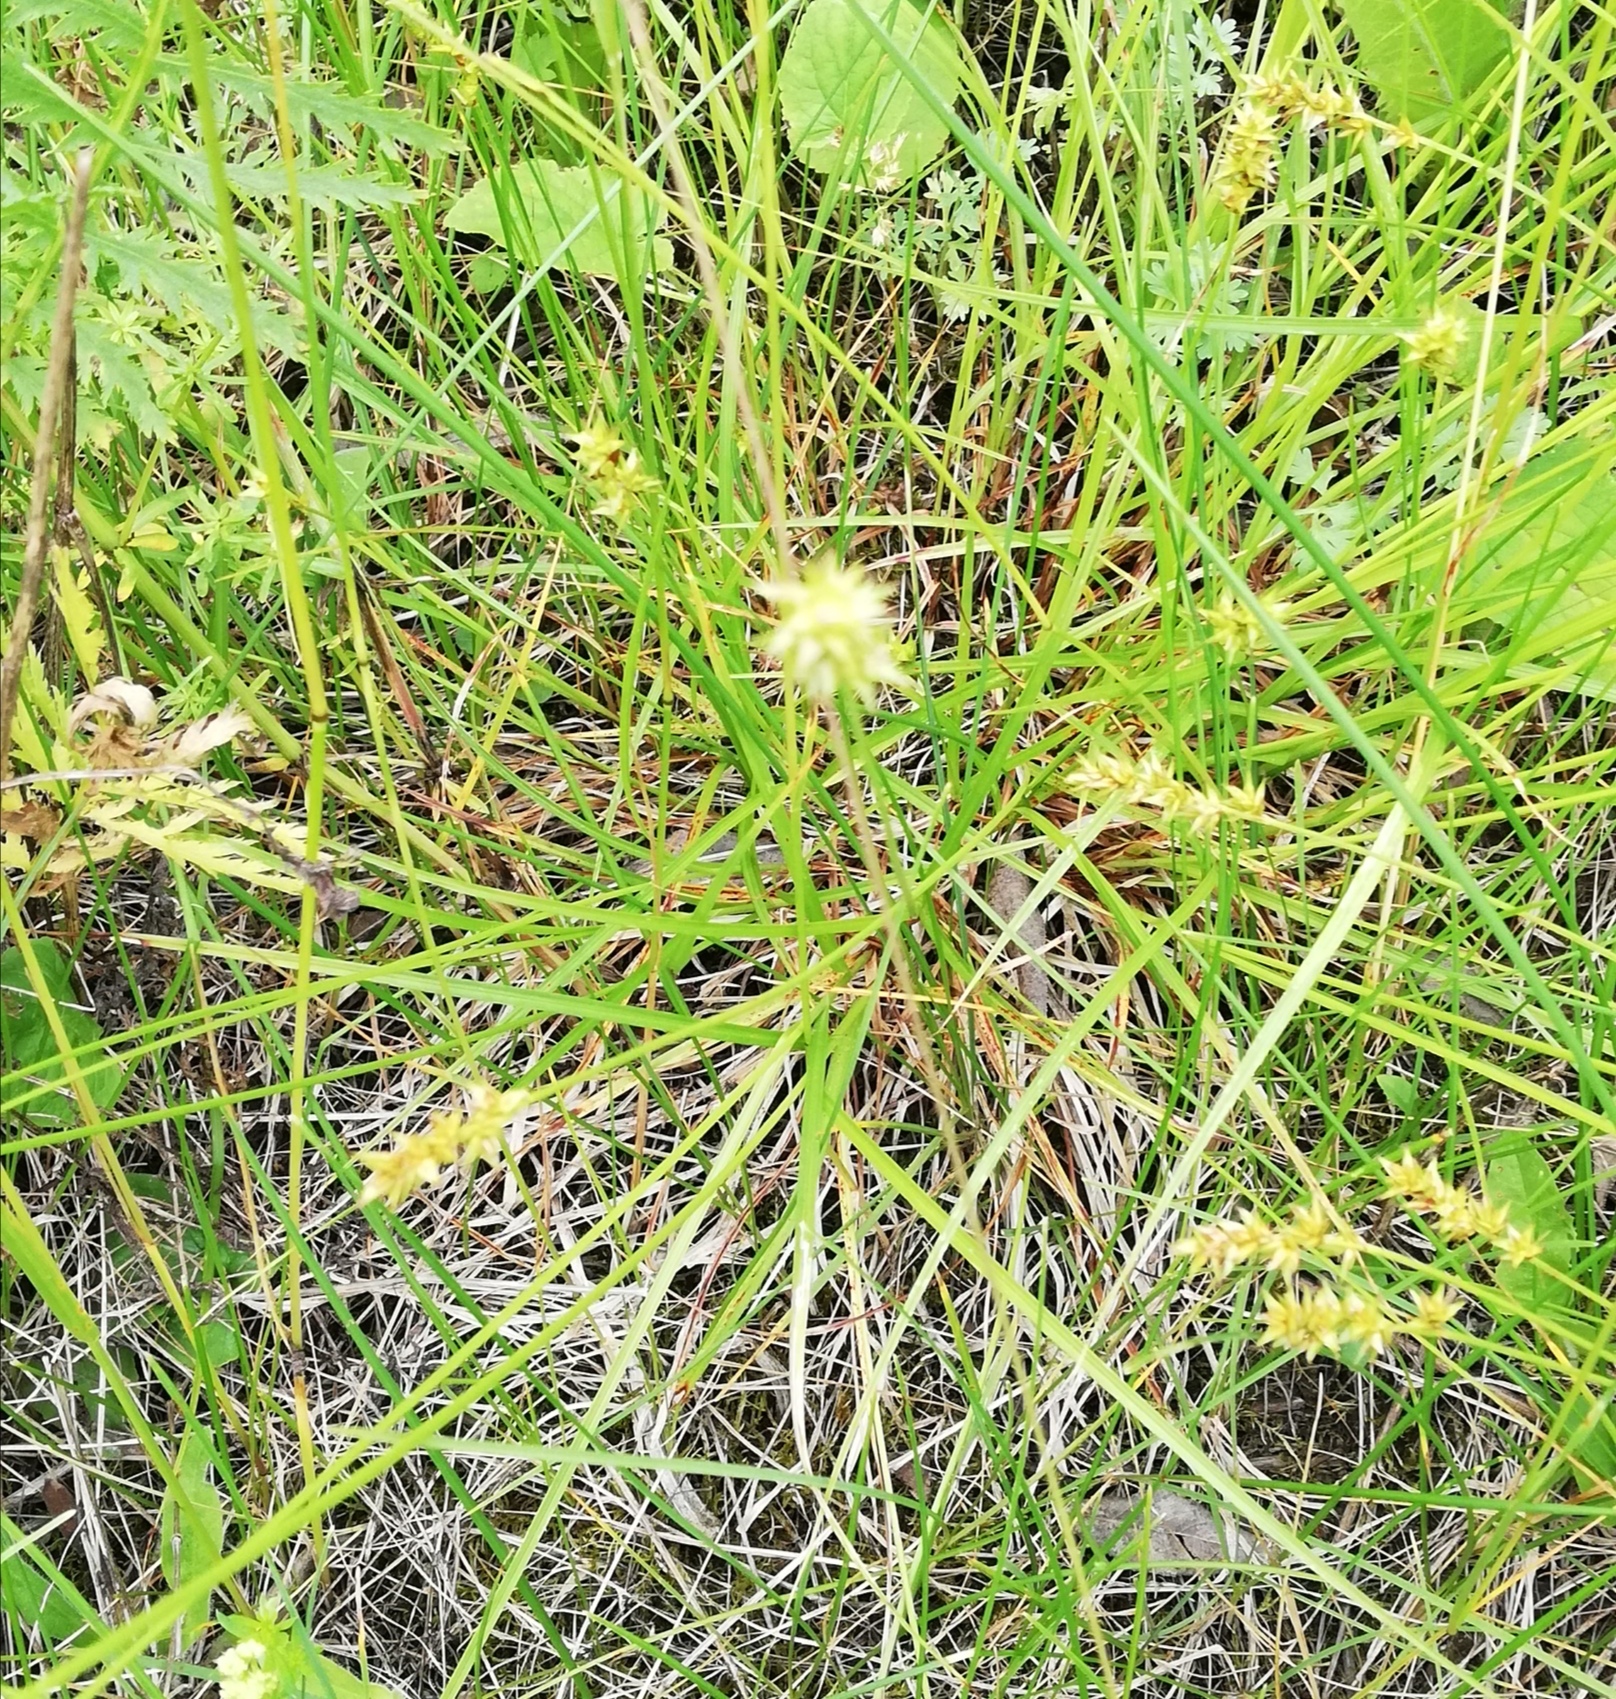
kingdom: Plantae
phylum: Tracheophyta
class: Liliopsida
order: Poales
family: Cyperaceae
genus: Carex
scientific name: Carex spicata
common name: Spiked sedge
